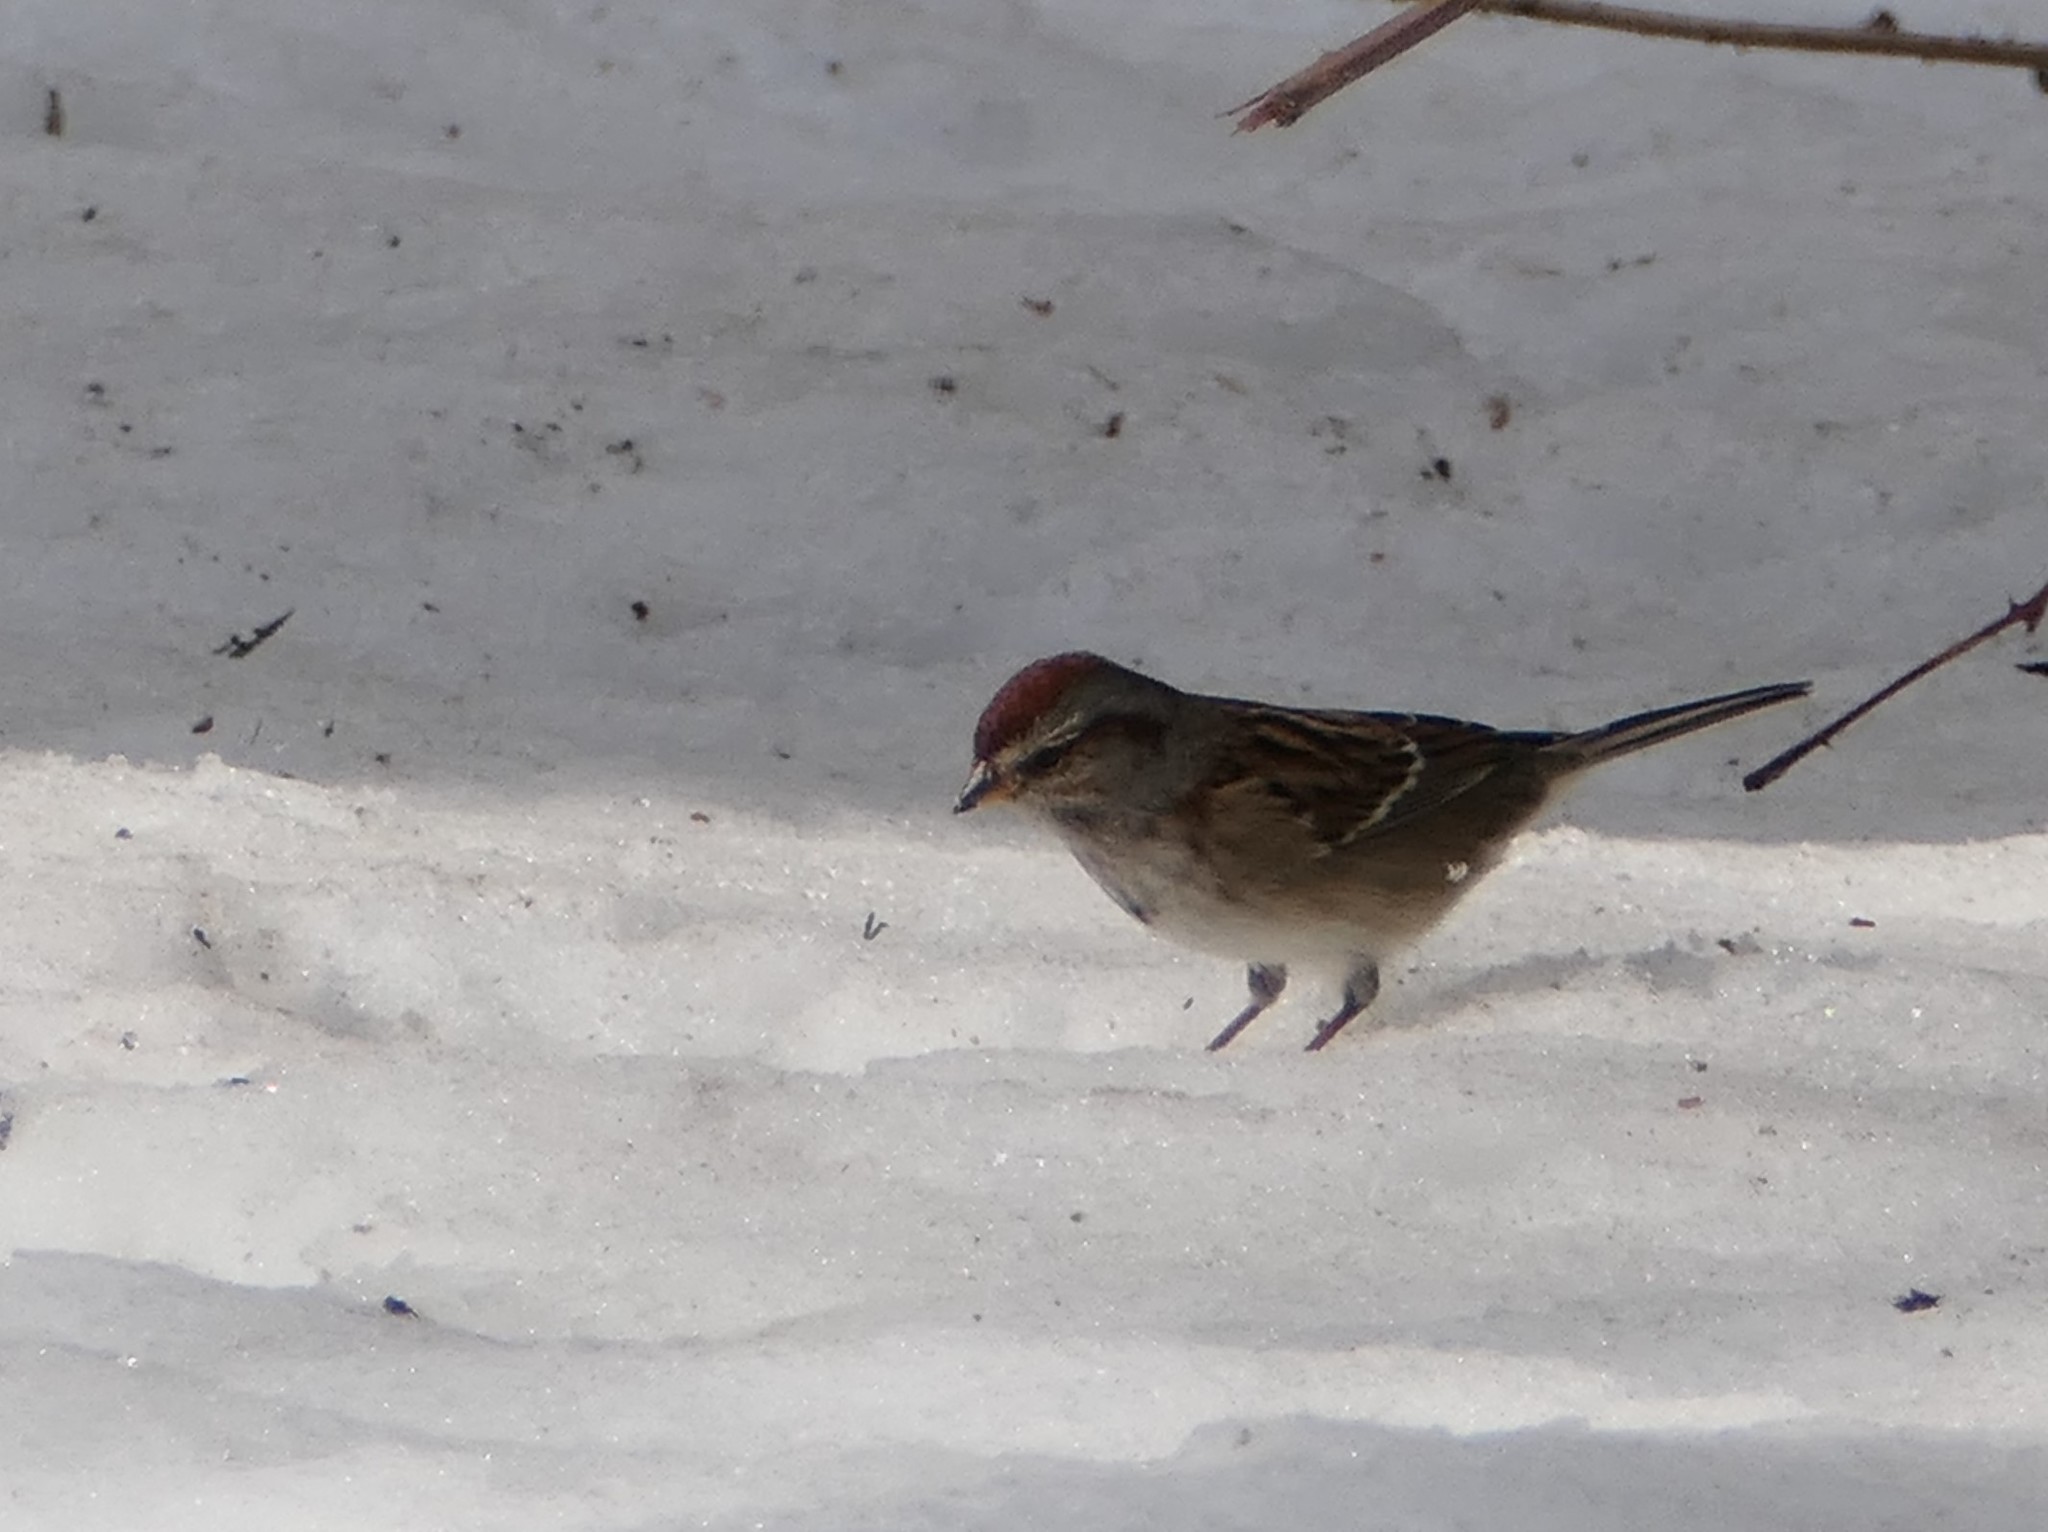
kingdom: Animalia
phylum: Chordata
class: Aves
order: Passeriformes
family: Passerellidae
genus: Spizelloides
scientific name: Spizelloides arborea
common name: American tree sparrow
